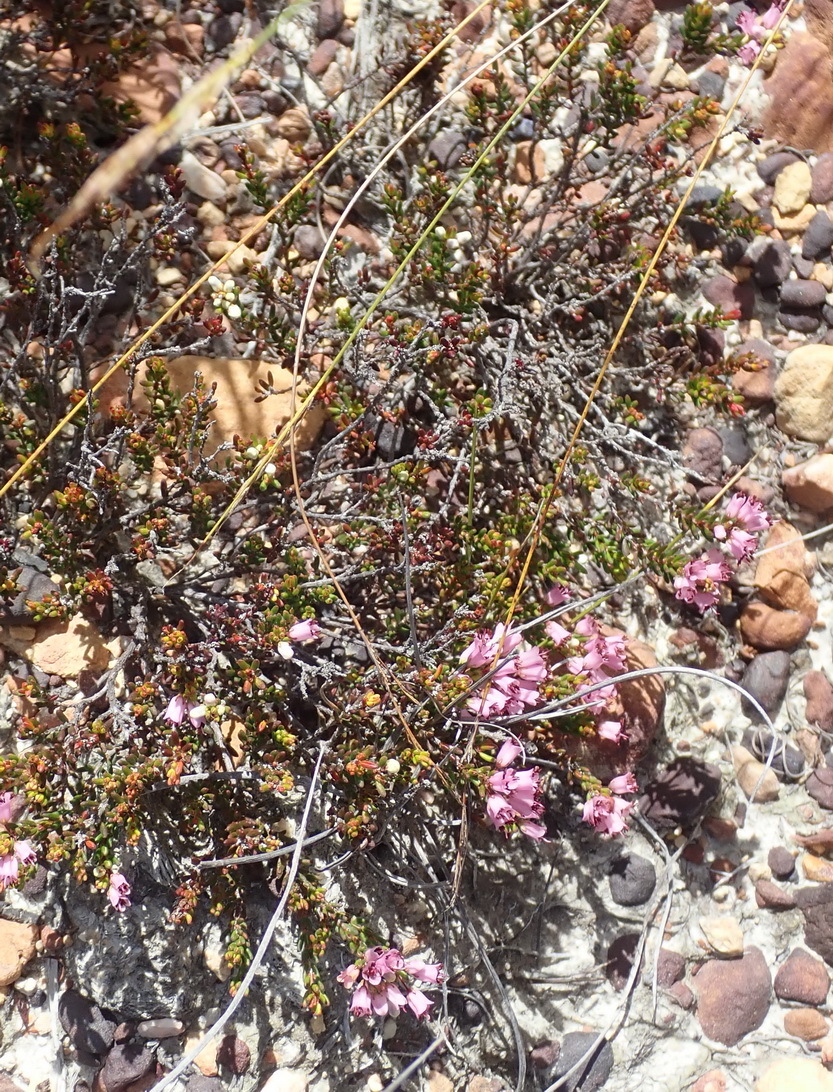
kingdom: Plantae
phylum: Tracheophyta
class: Magnoliopsida
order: Ericales
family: Ericaceae
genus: Erica
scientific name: Erica nudiflora
